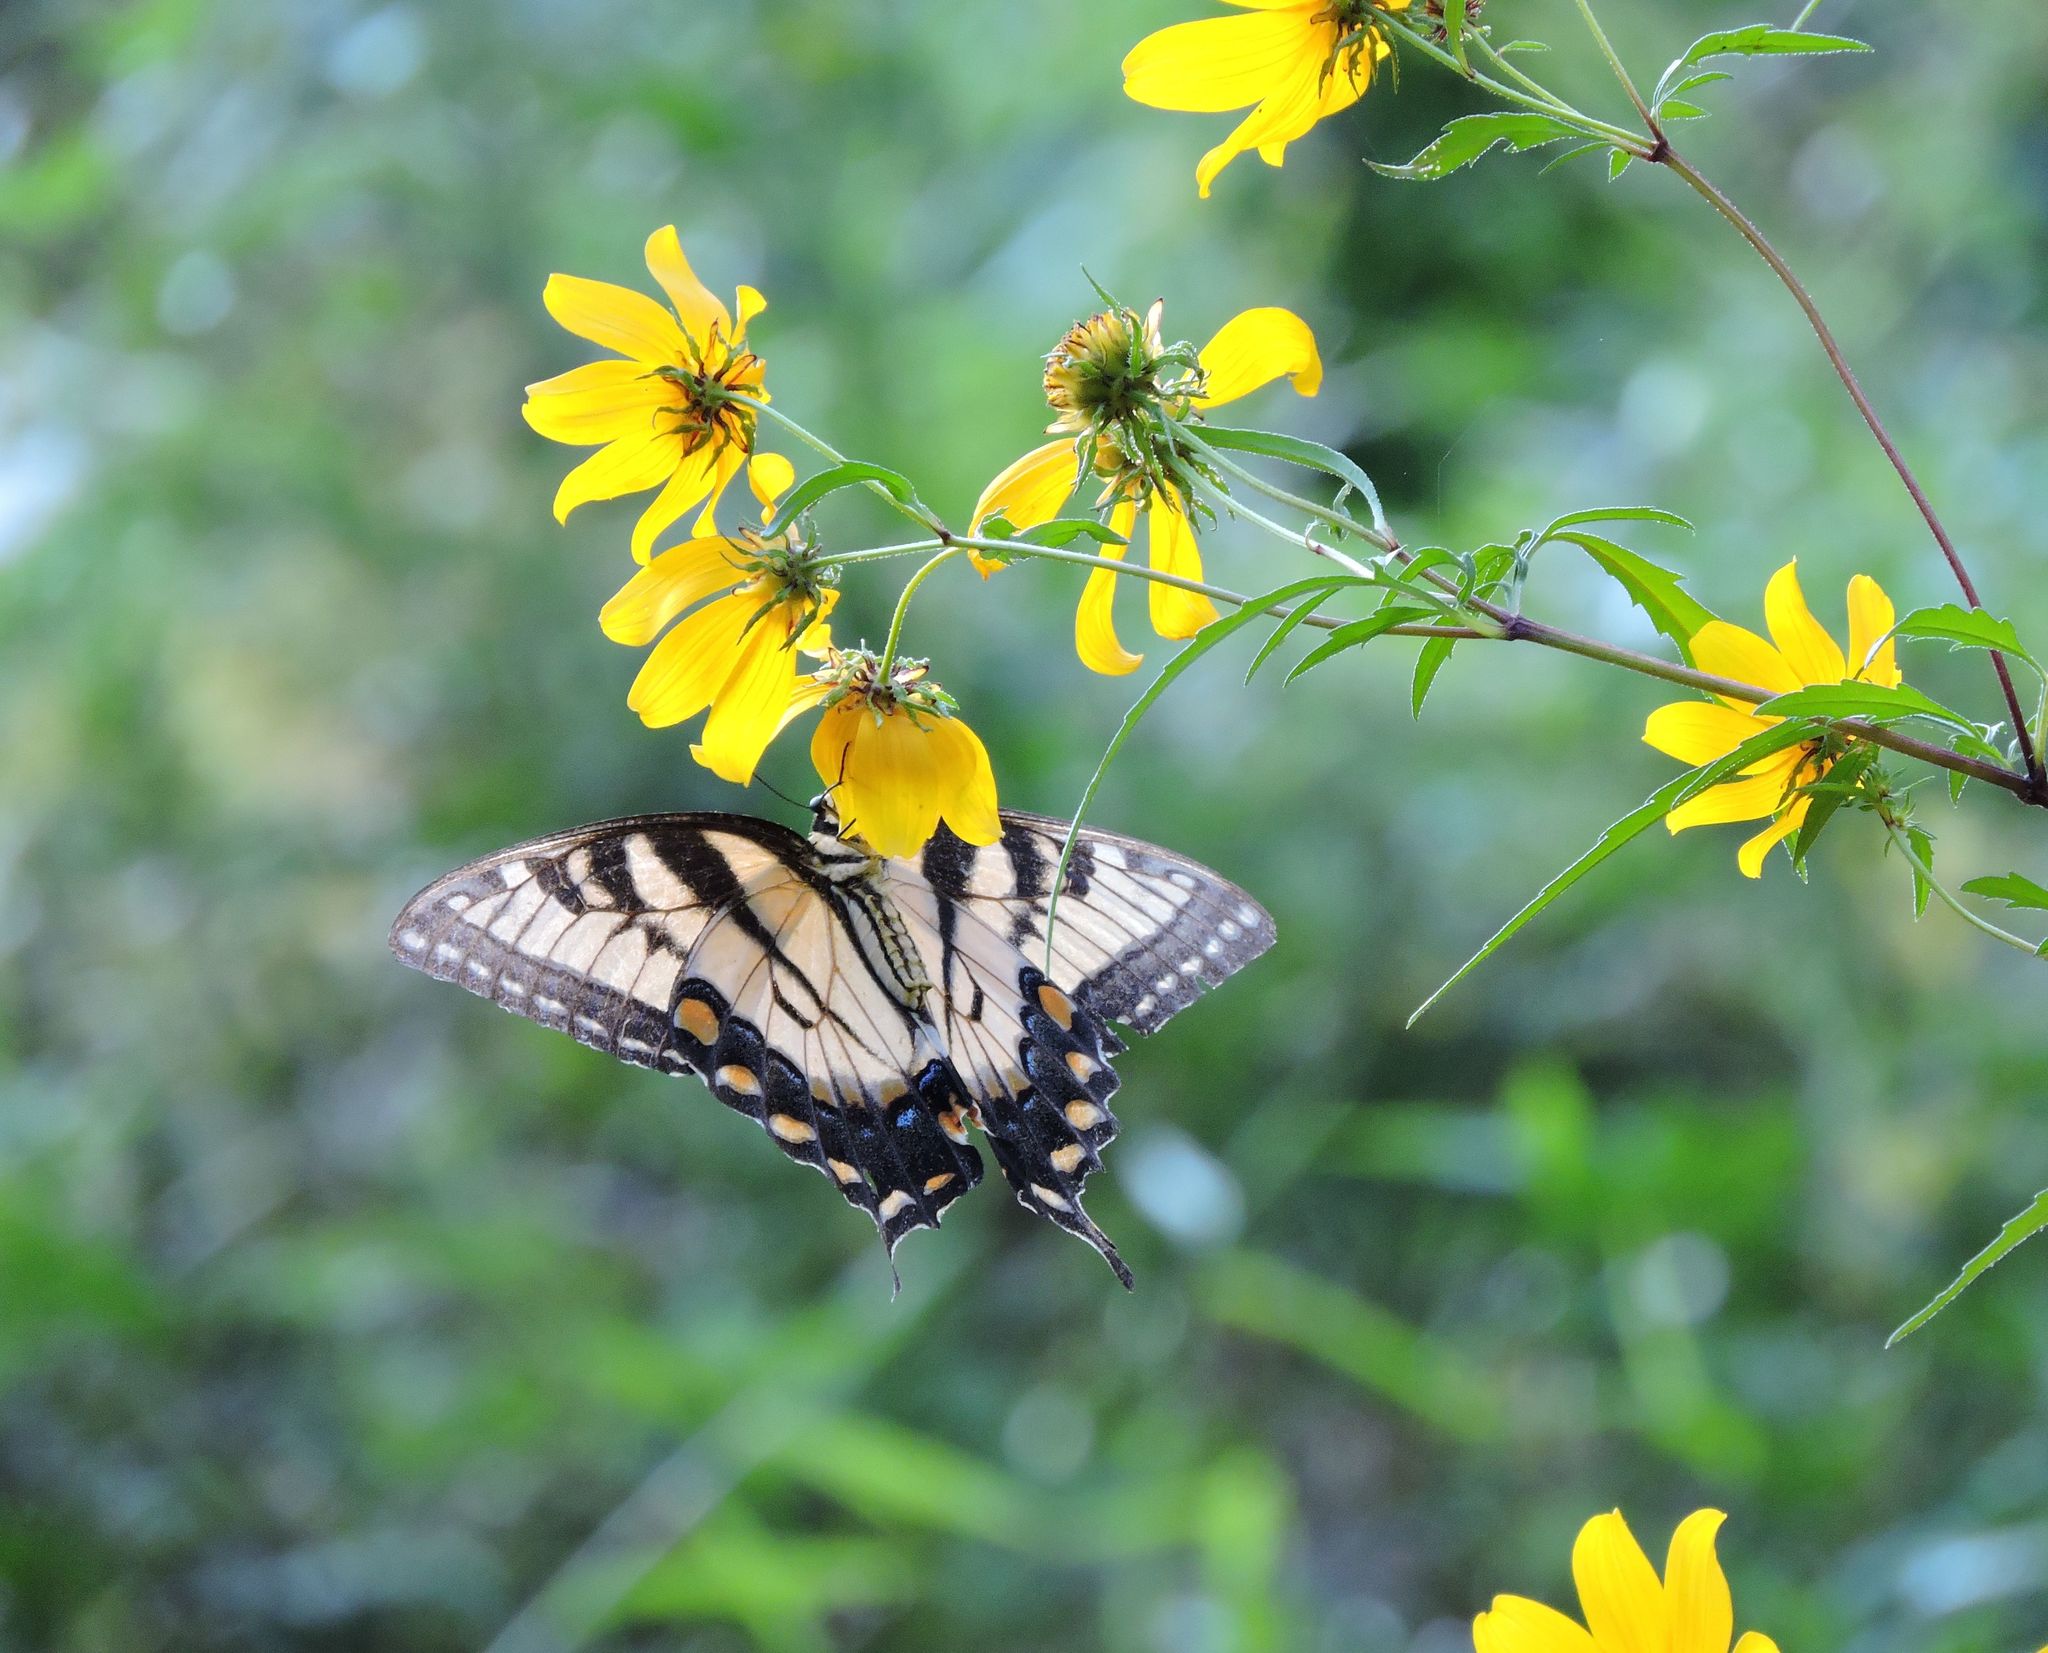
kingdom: Animalia
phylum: Arthropoda
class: Insecta
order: Lepidoptera
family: Papilionidae
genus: Papilio
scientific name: Papilio glaucus
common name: Tiger swallowtail
